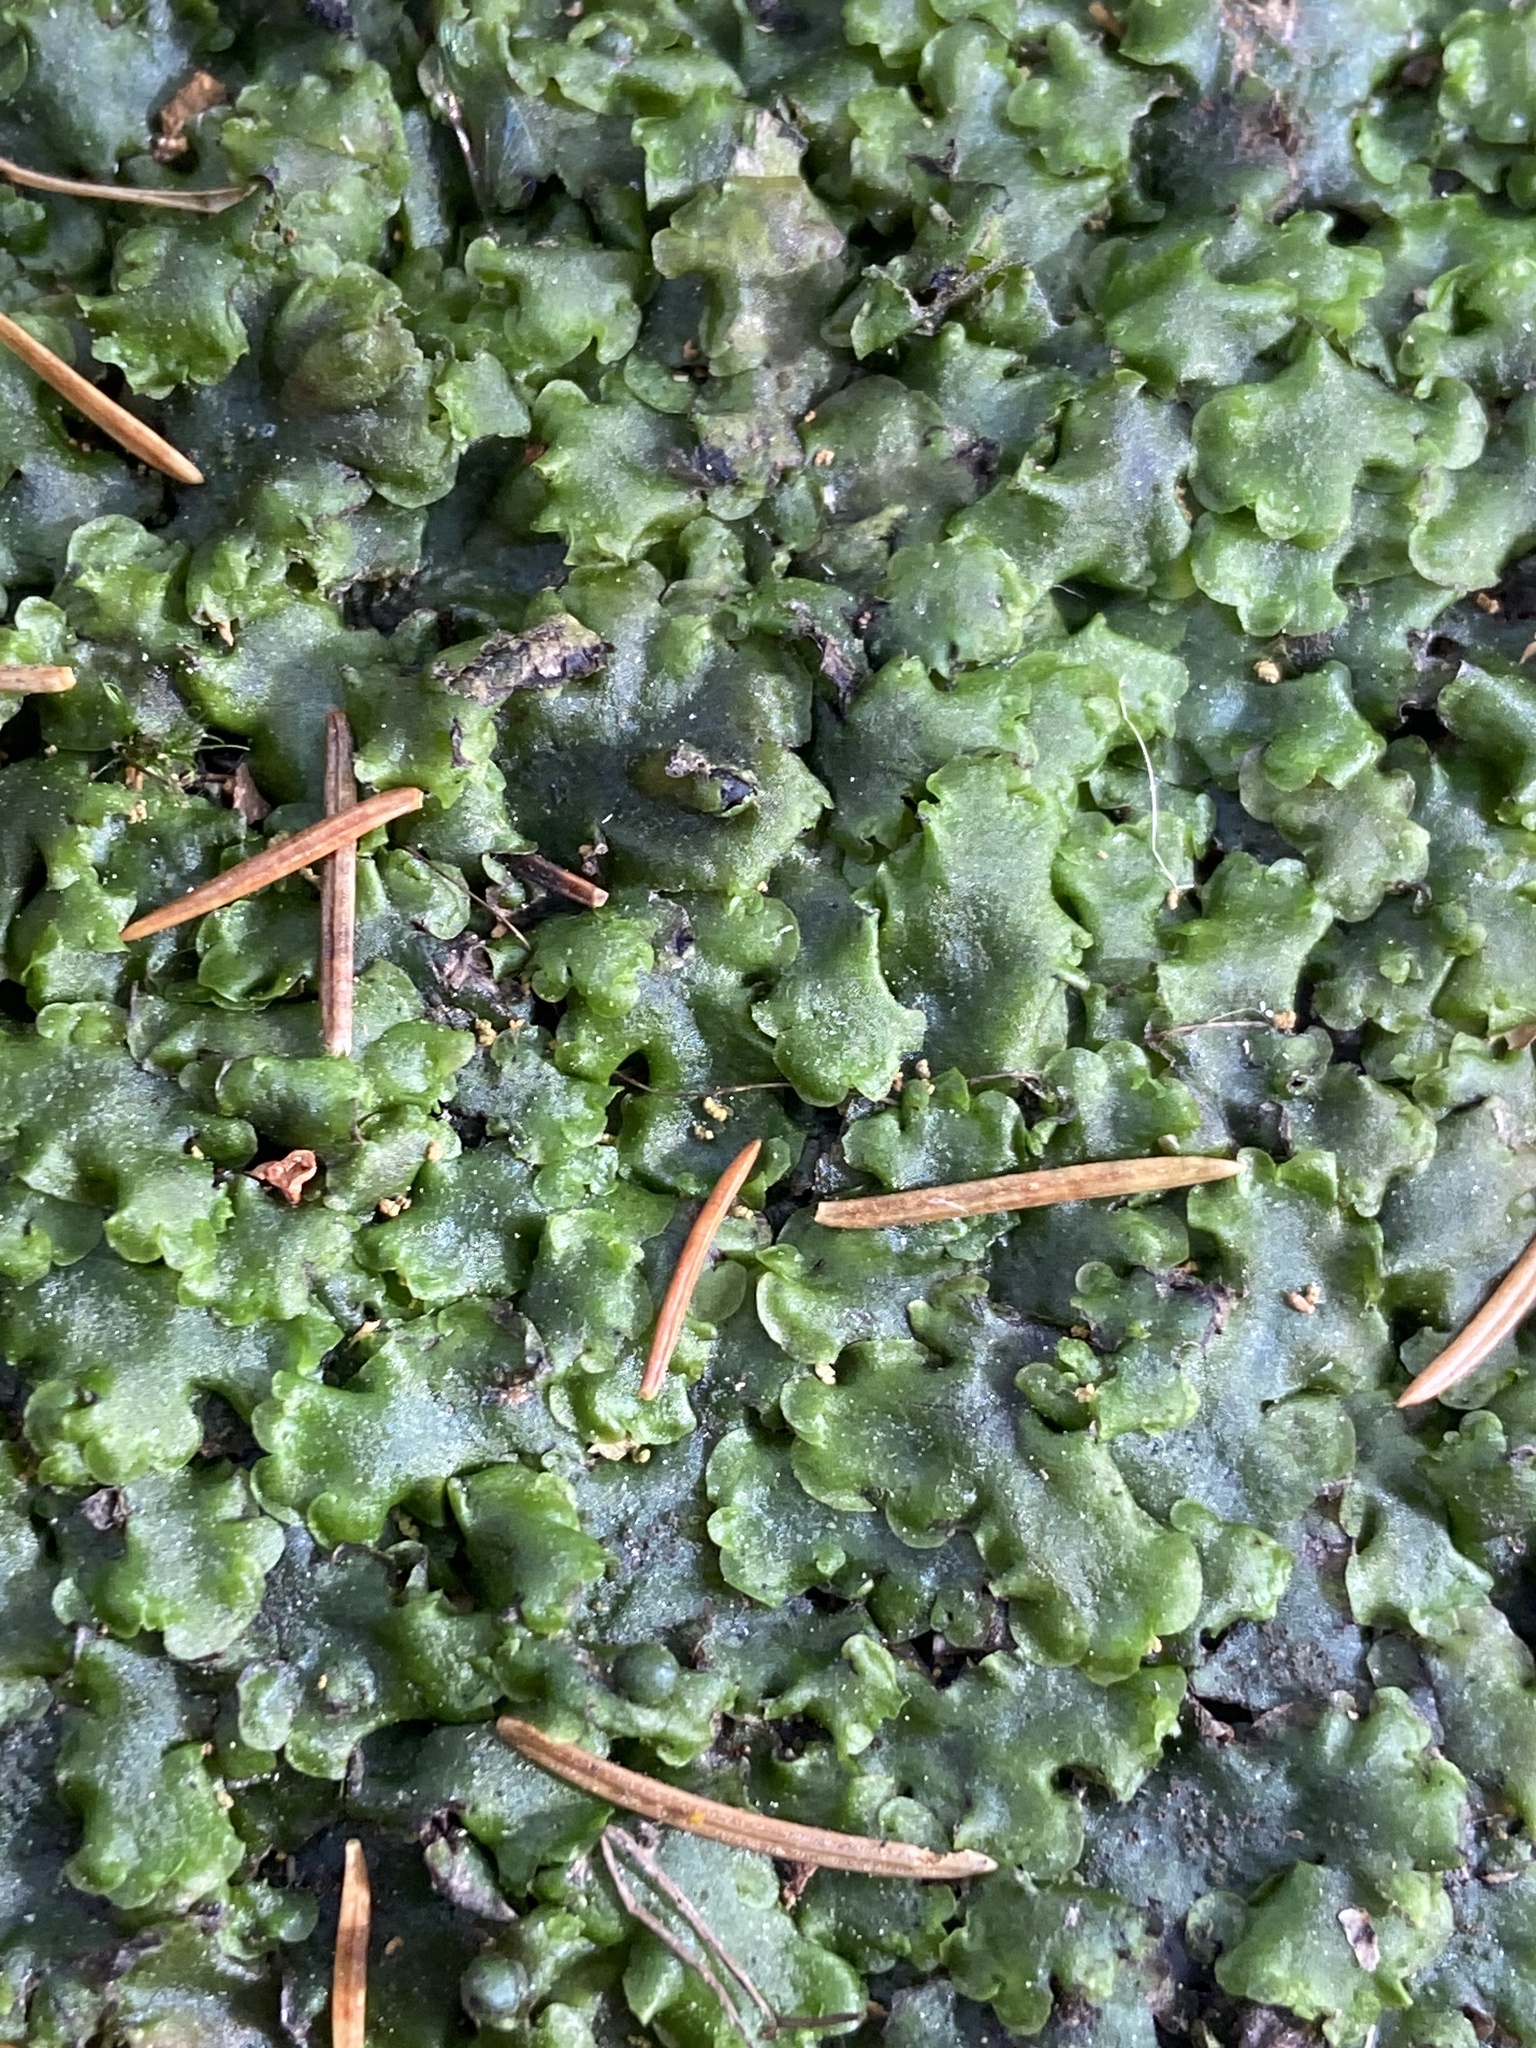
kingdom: Plantae
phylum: Marchantiophyta
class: Jungermanniopsida
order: Pelliales
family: Pelliaceae
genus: Pellia
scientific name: Pellia epiphylla
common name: Common pellia
